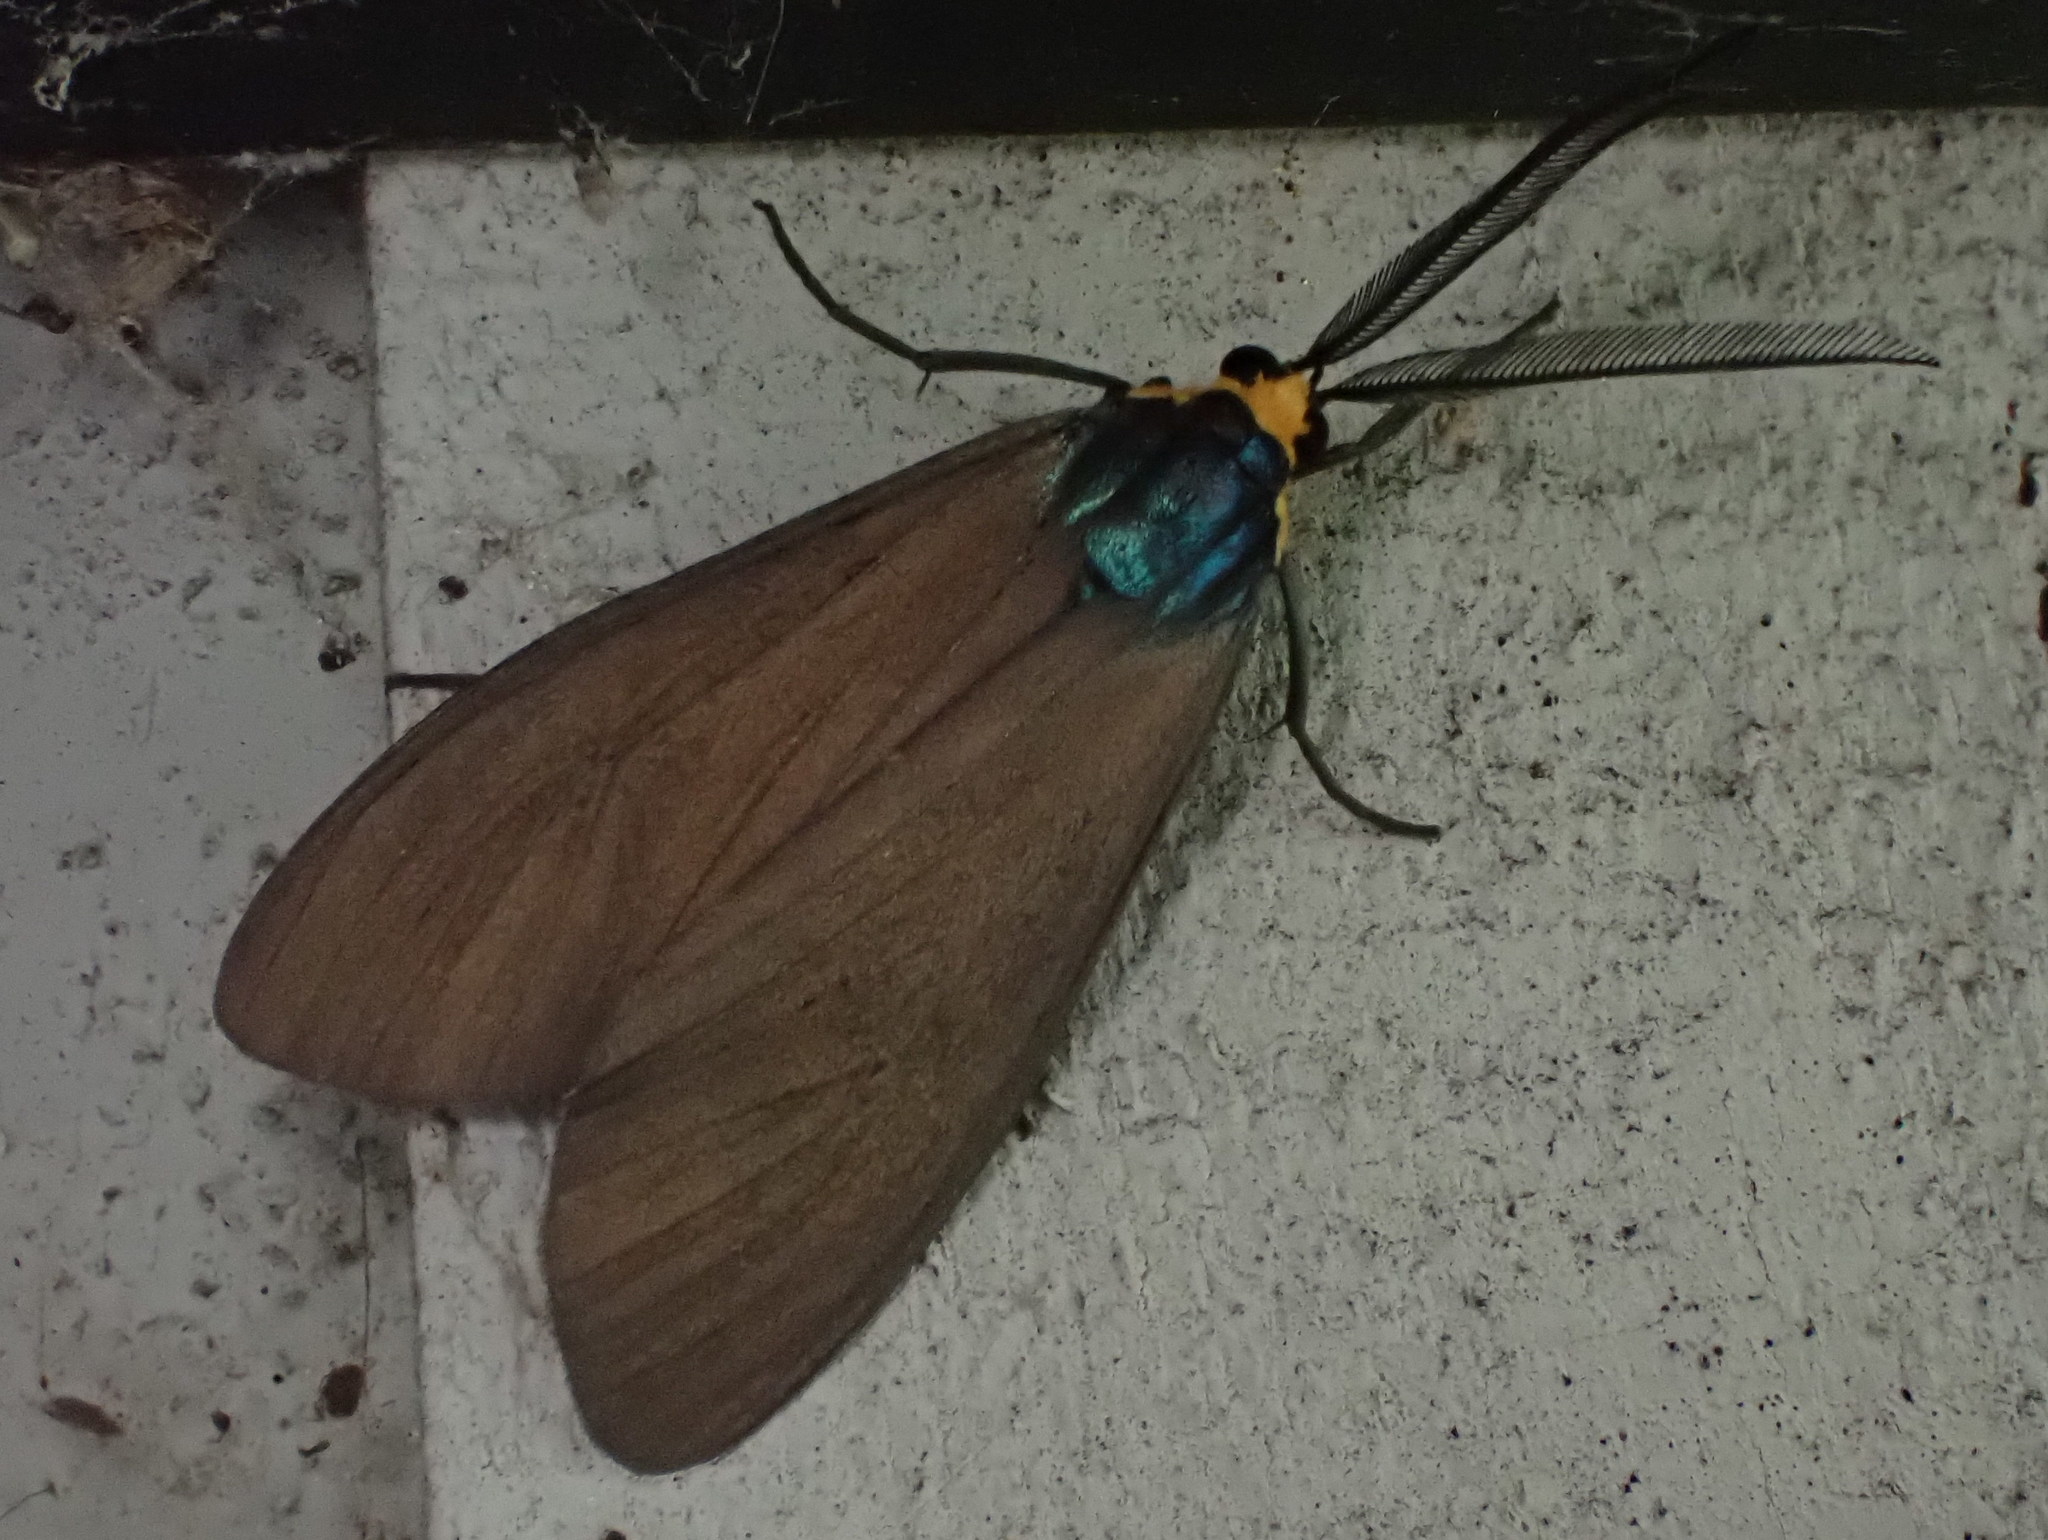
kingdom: Animalia
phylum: Arthropoda
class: Insecta
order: Lepidoptera
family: Erebidae
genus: Ctenucha
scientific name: Ctenucha virginica
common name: Virginia ctenucha moth
